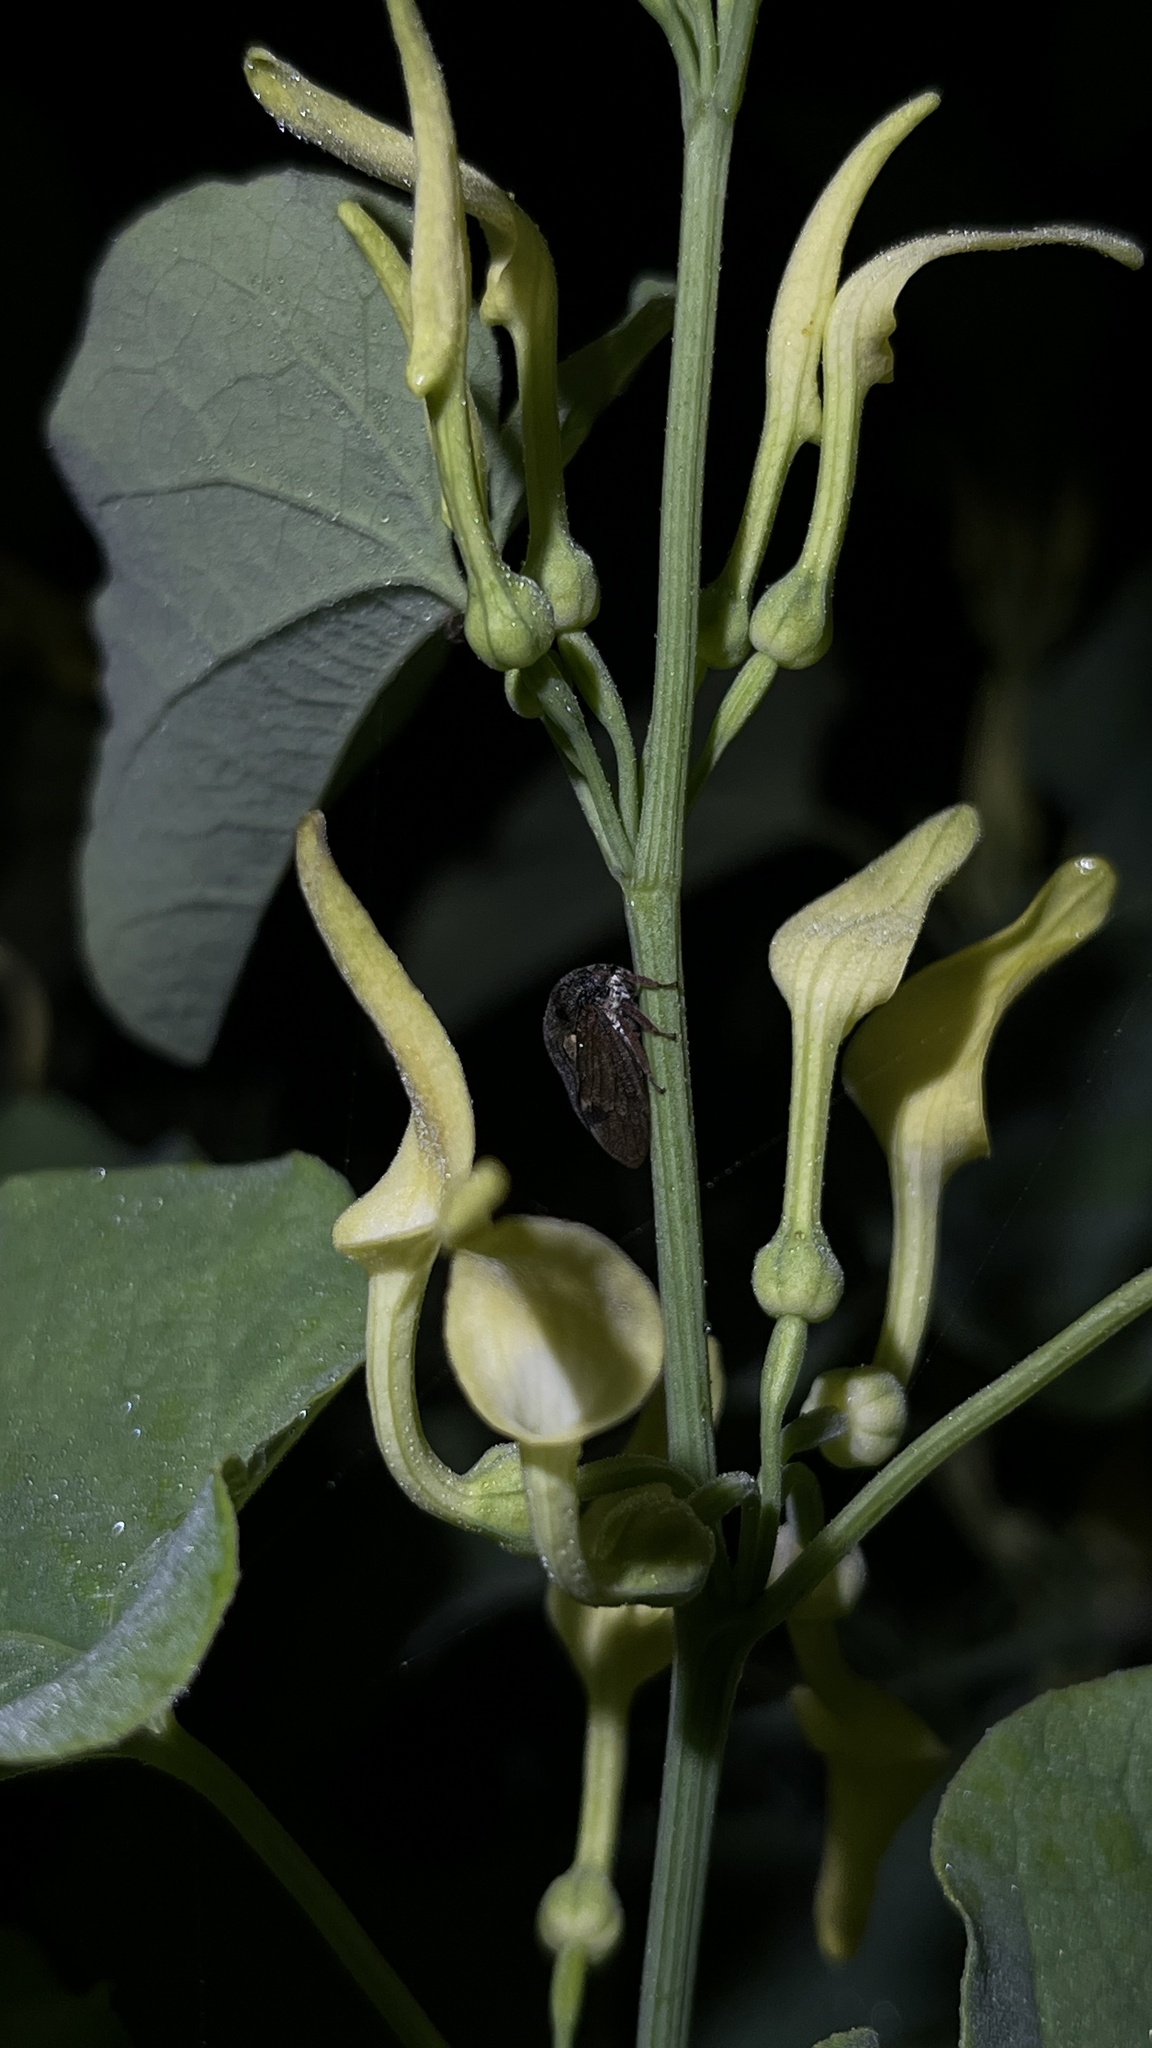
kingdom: Plantae
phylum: Tracheophyta
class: Magnoliopsida
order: Piperales
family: Aristolochiaceae
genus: Aristolochia
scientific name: Aristolochia clematitis
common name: Birthwort
